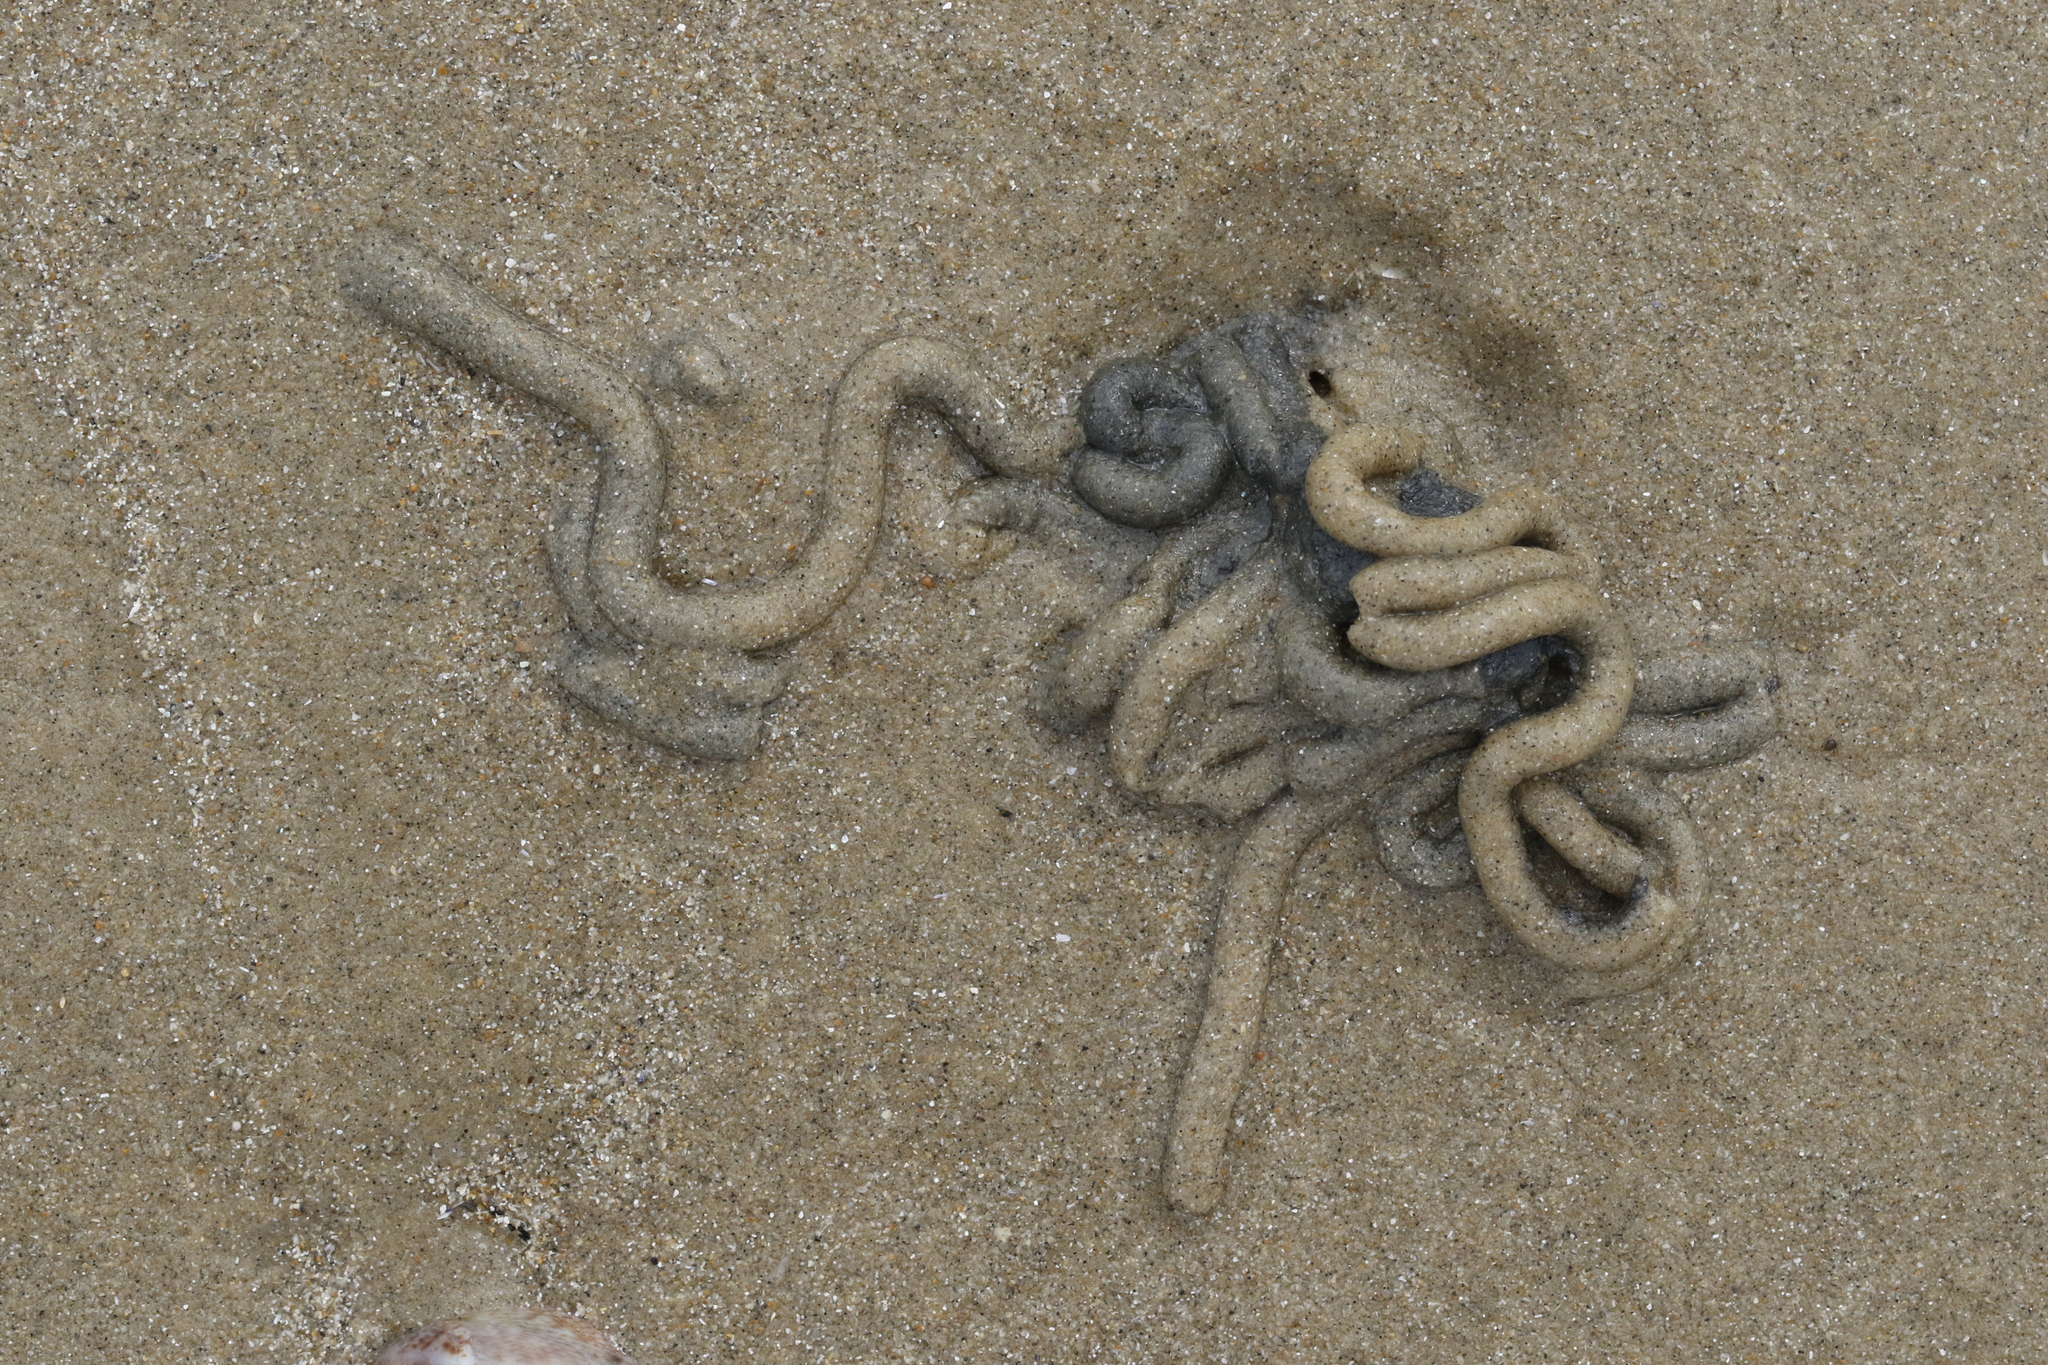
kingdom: Animalia
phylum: Annelida
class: Polychaeta
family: Arenicolidae
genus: Arenicola
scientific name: Arenicola marina
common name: Blow lugworm
